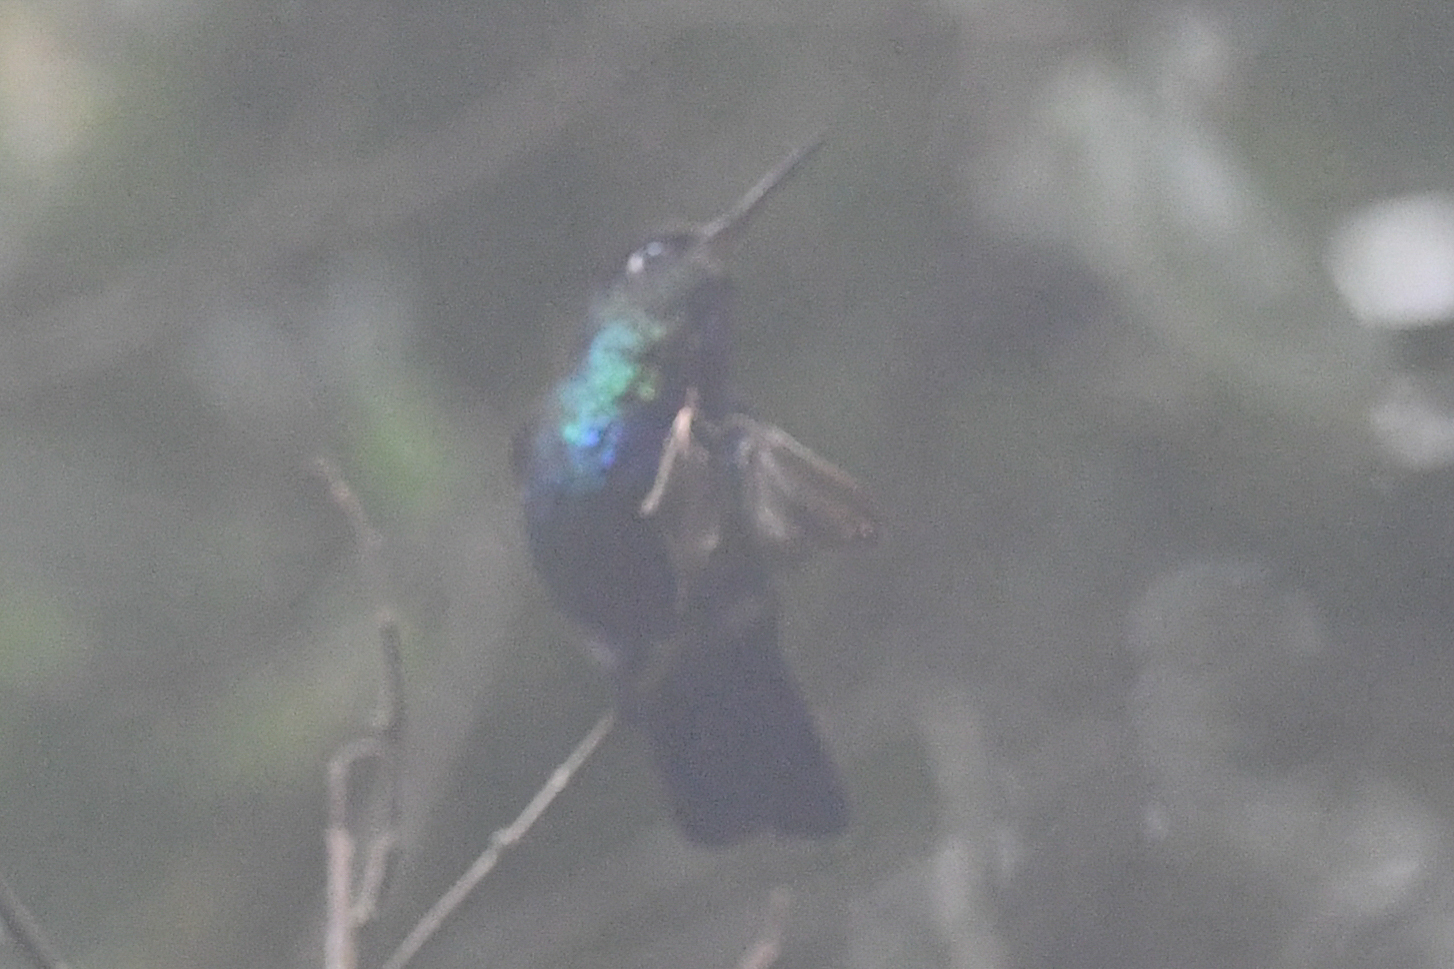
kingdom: Animalia
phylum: Chordata
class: Aves
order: Apodiformes
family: Trochilidae
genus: Panterpe
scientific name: Panterpe insignis
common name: Fiery-throated hummingbird
